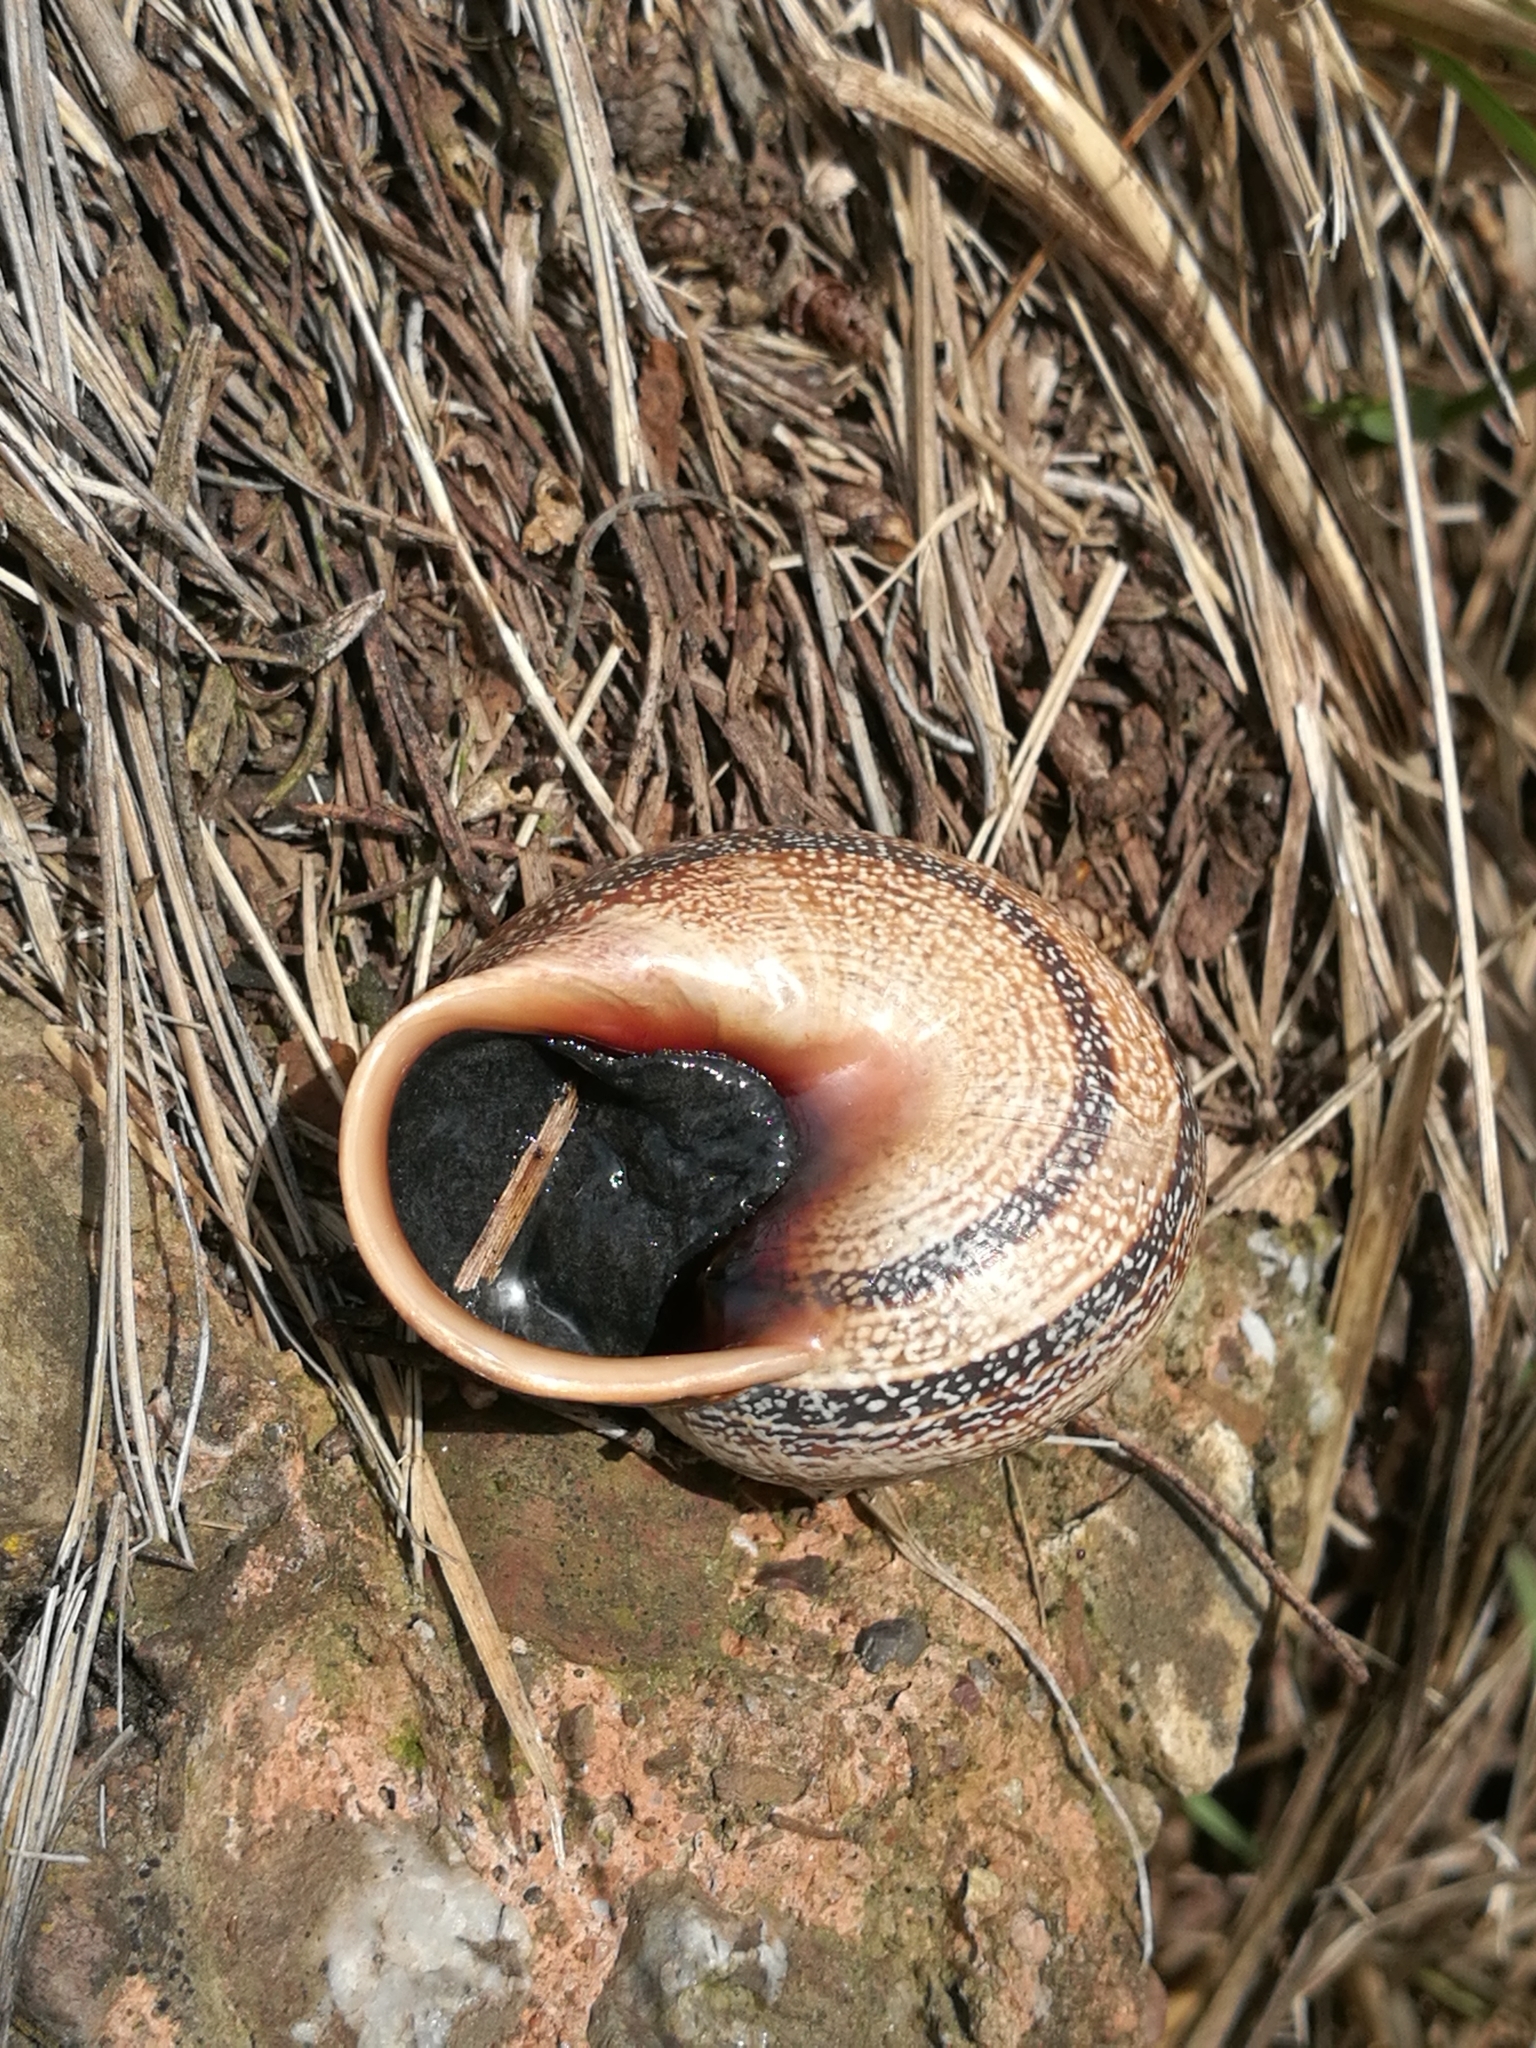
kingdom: Animalia
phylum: Mollusca
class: Gastropoda
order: Stylommatophora
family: Helicidae
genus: Otala
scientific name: Otala punctata
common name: Milk snail
